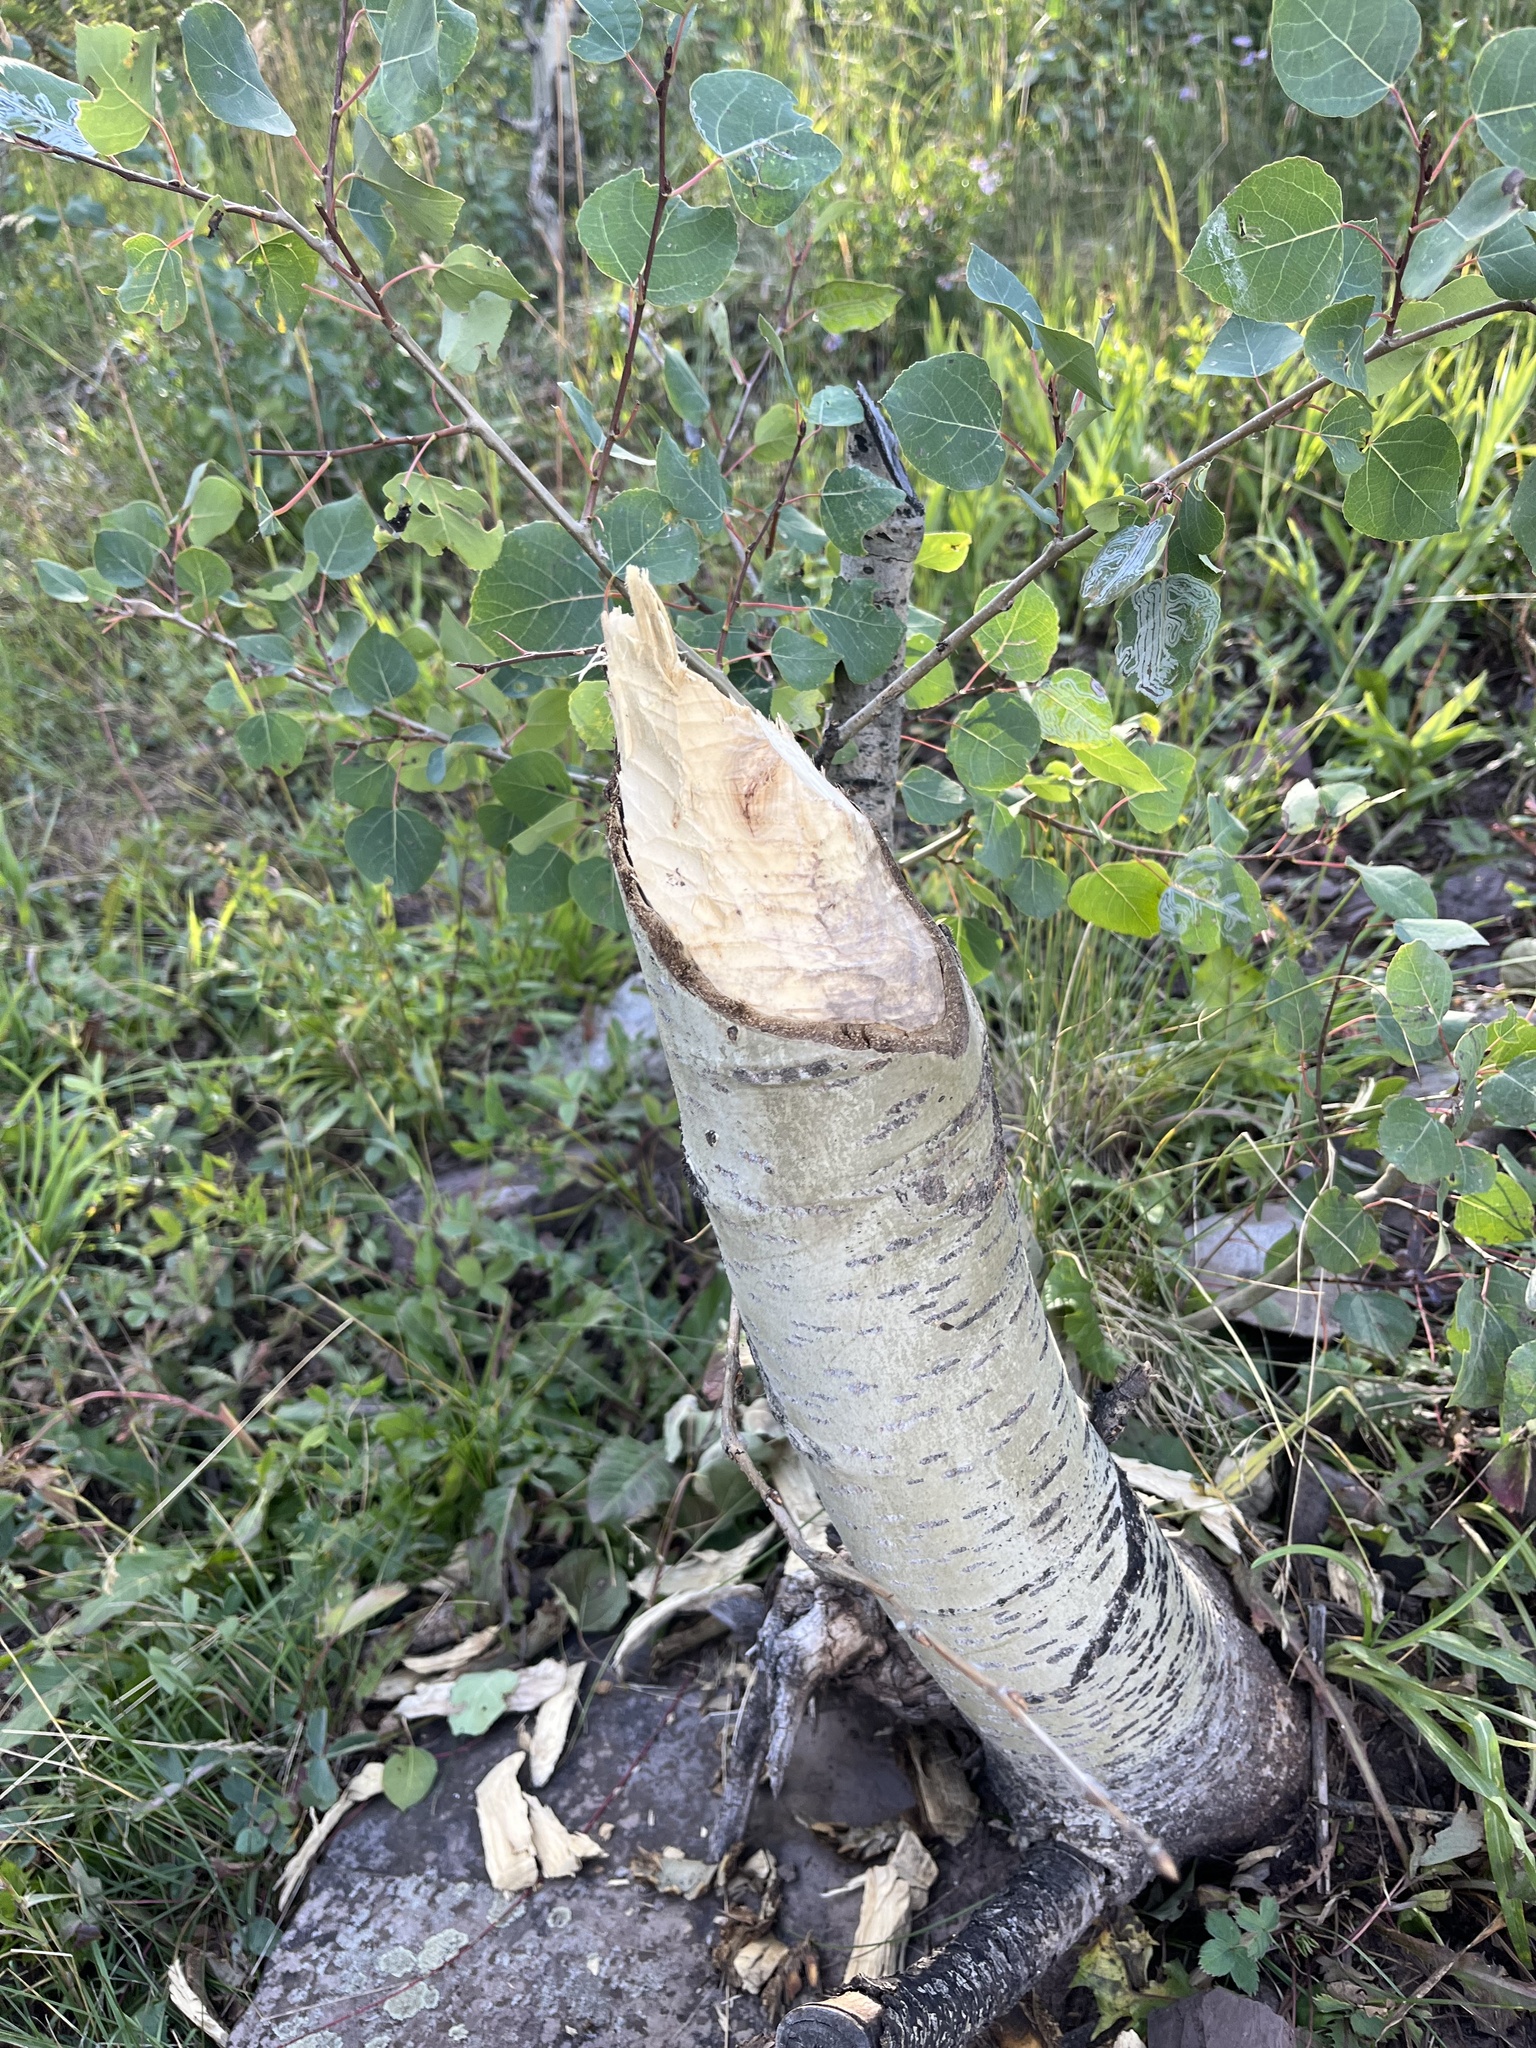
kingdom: Animalia
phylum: Chordata
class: Mammalia
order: Rodentia
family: Castoridae
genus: Castor
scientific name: Castor canadensis
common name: American beaver
